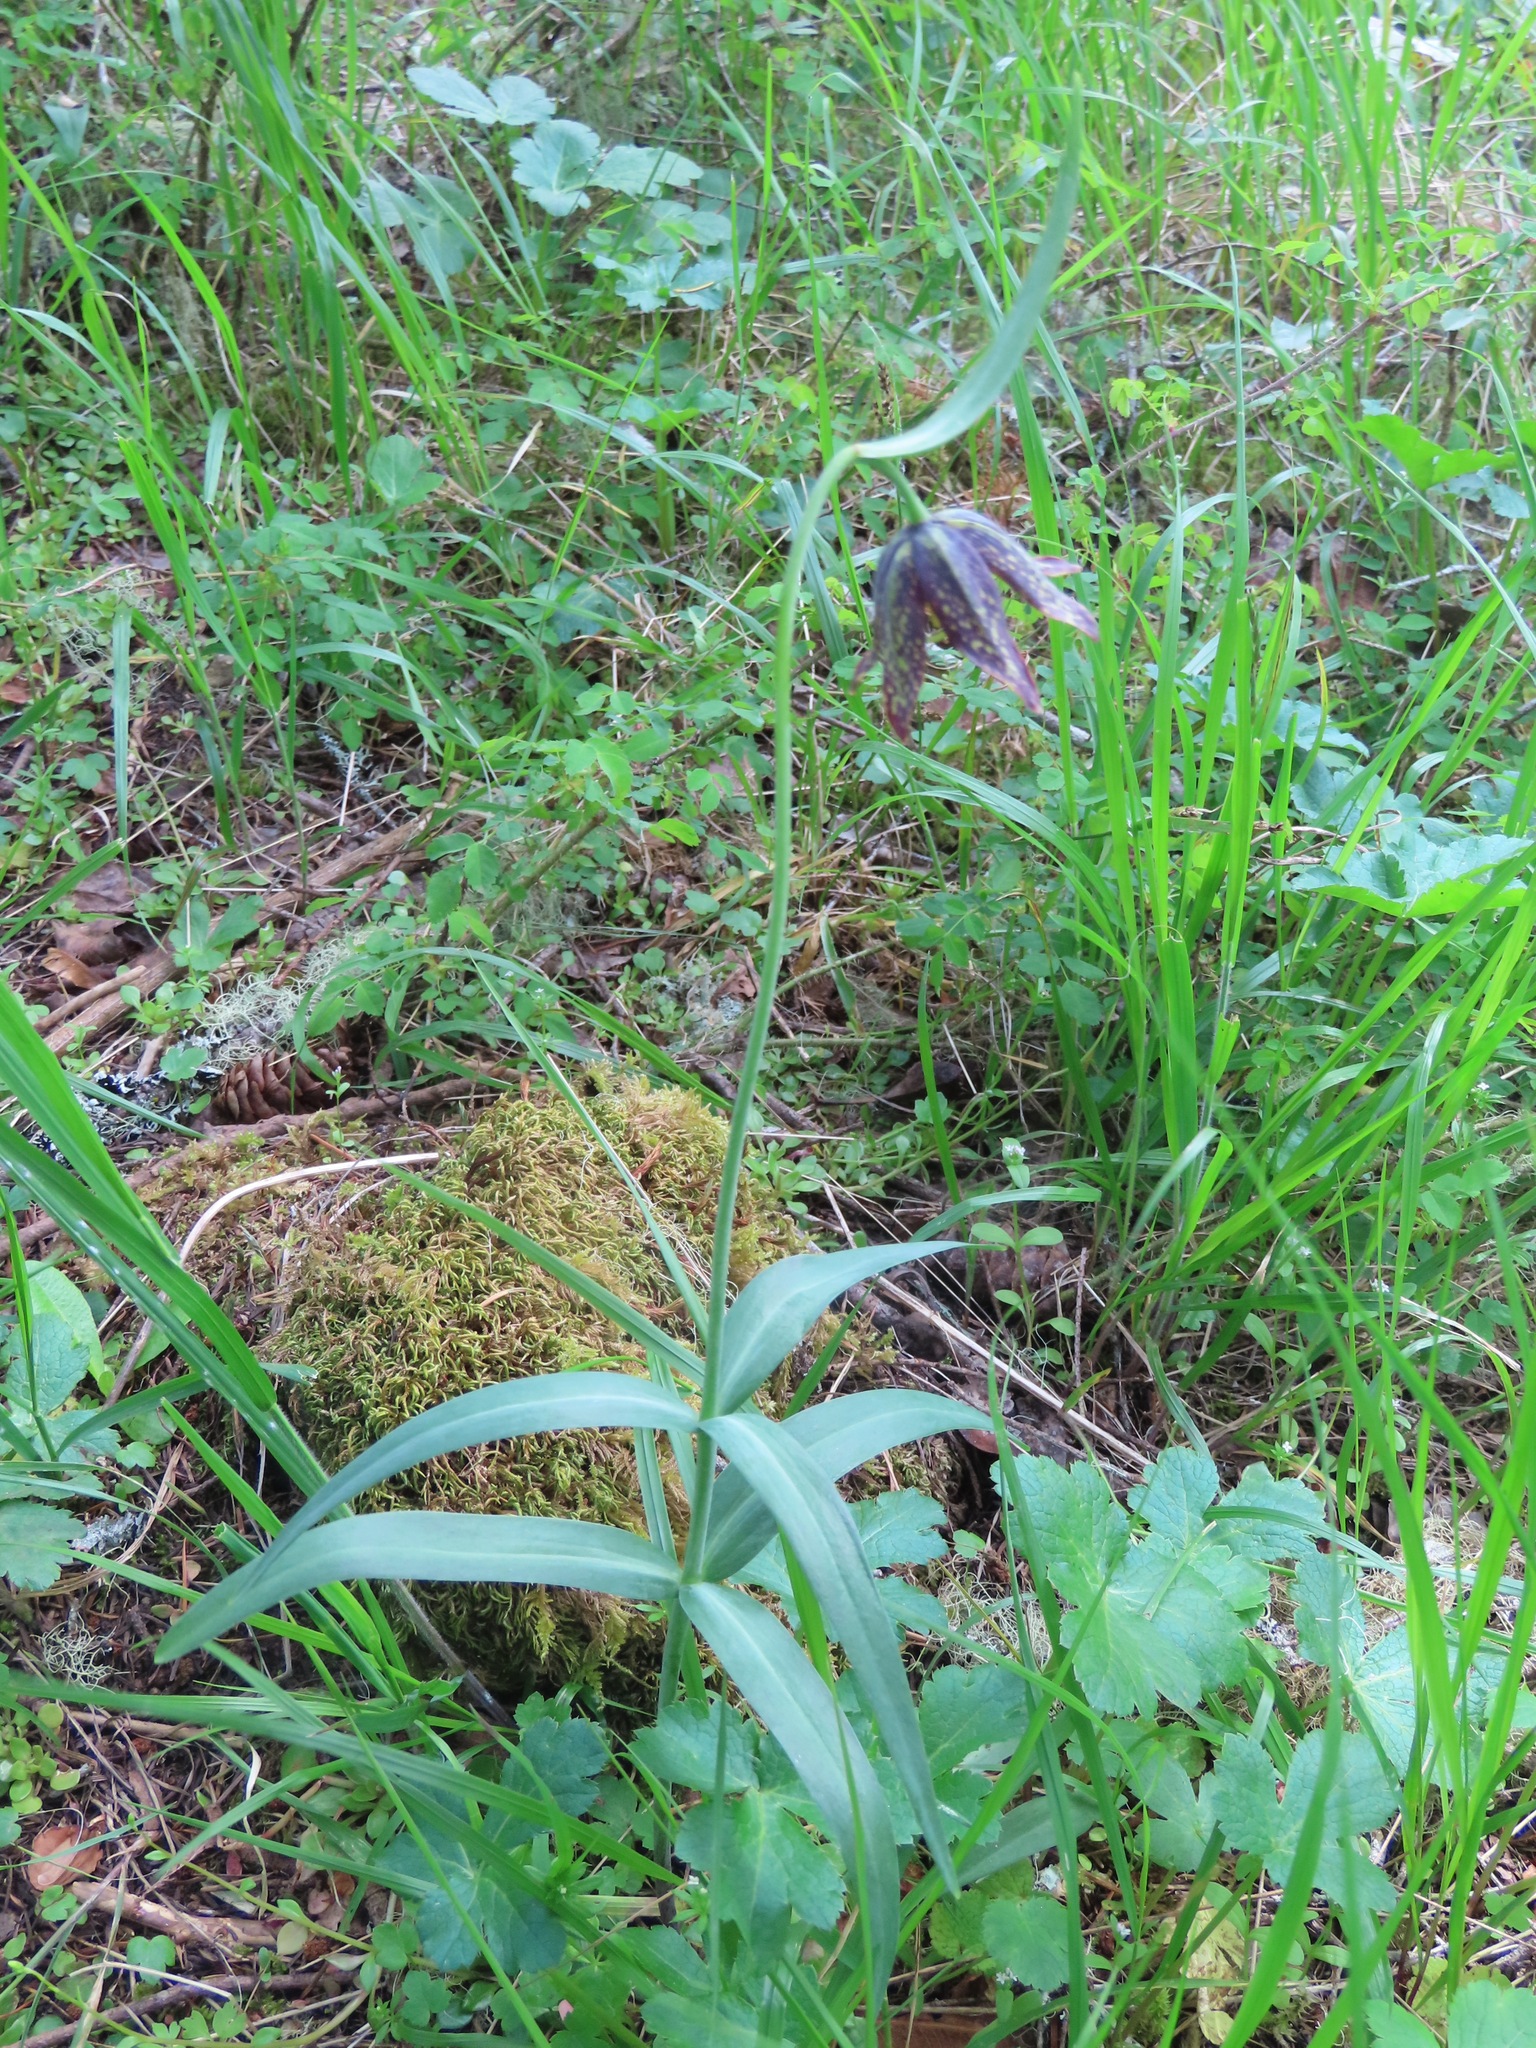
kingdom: Plantae
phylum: Tracheophyta
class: Liliopsida
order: Liliales
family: Liliaceae
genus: Fritillaria
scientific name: Fritillaria affinis
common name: Ojai fritillary
